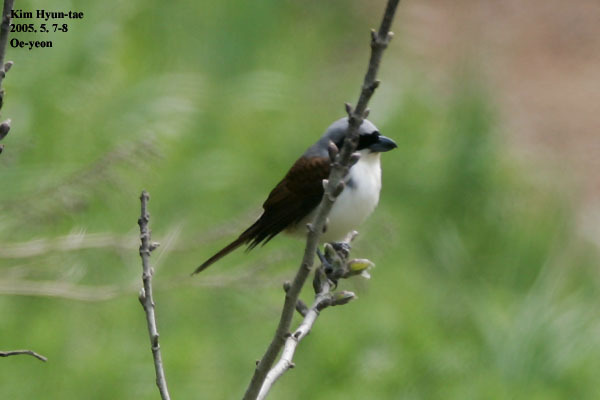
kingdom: Animalia
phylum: Chordata
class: Aves
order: Passeriformes
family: Laniidae
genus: Lanius
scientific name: Lanius tigrinus
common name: Tiger shrike
